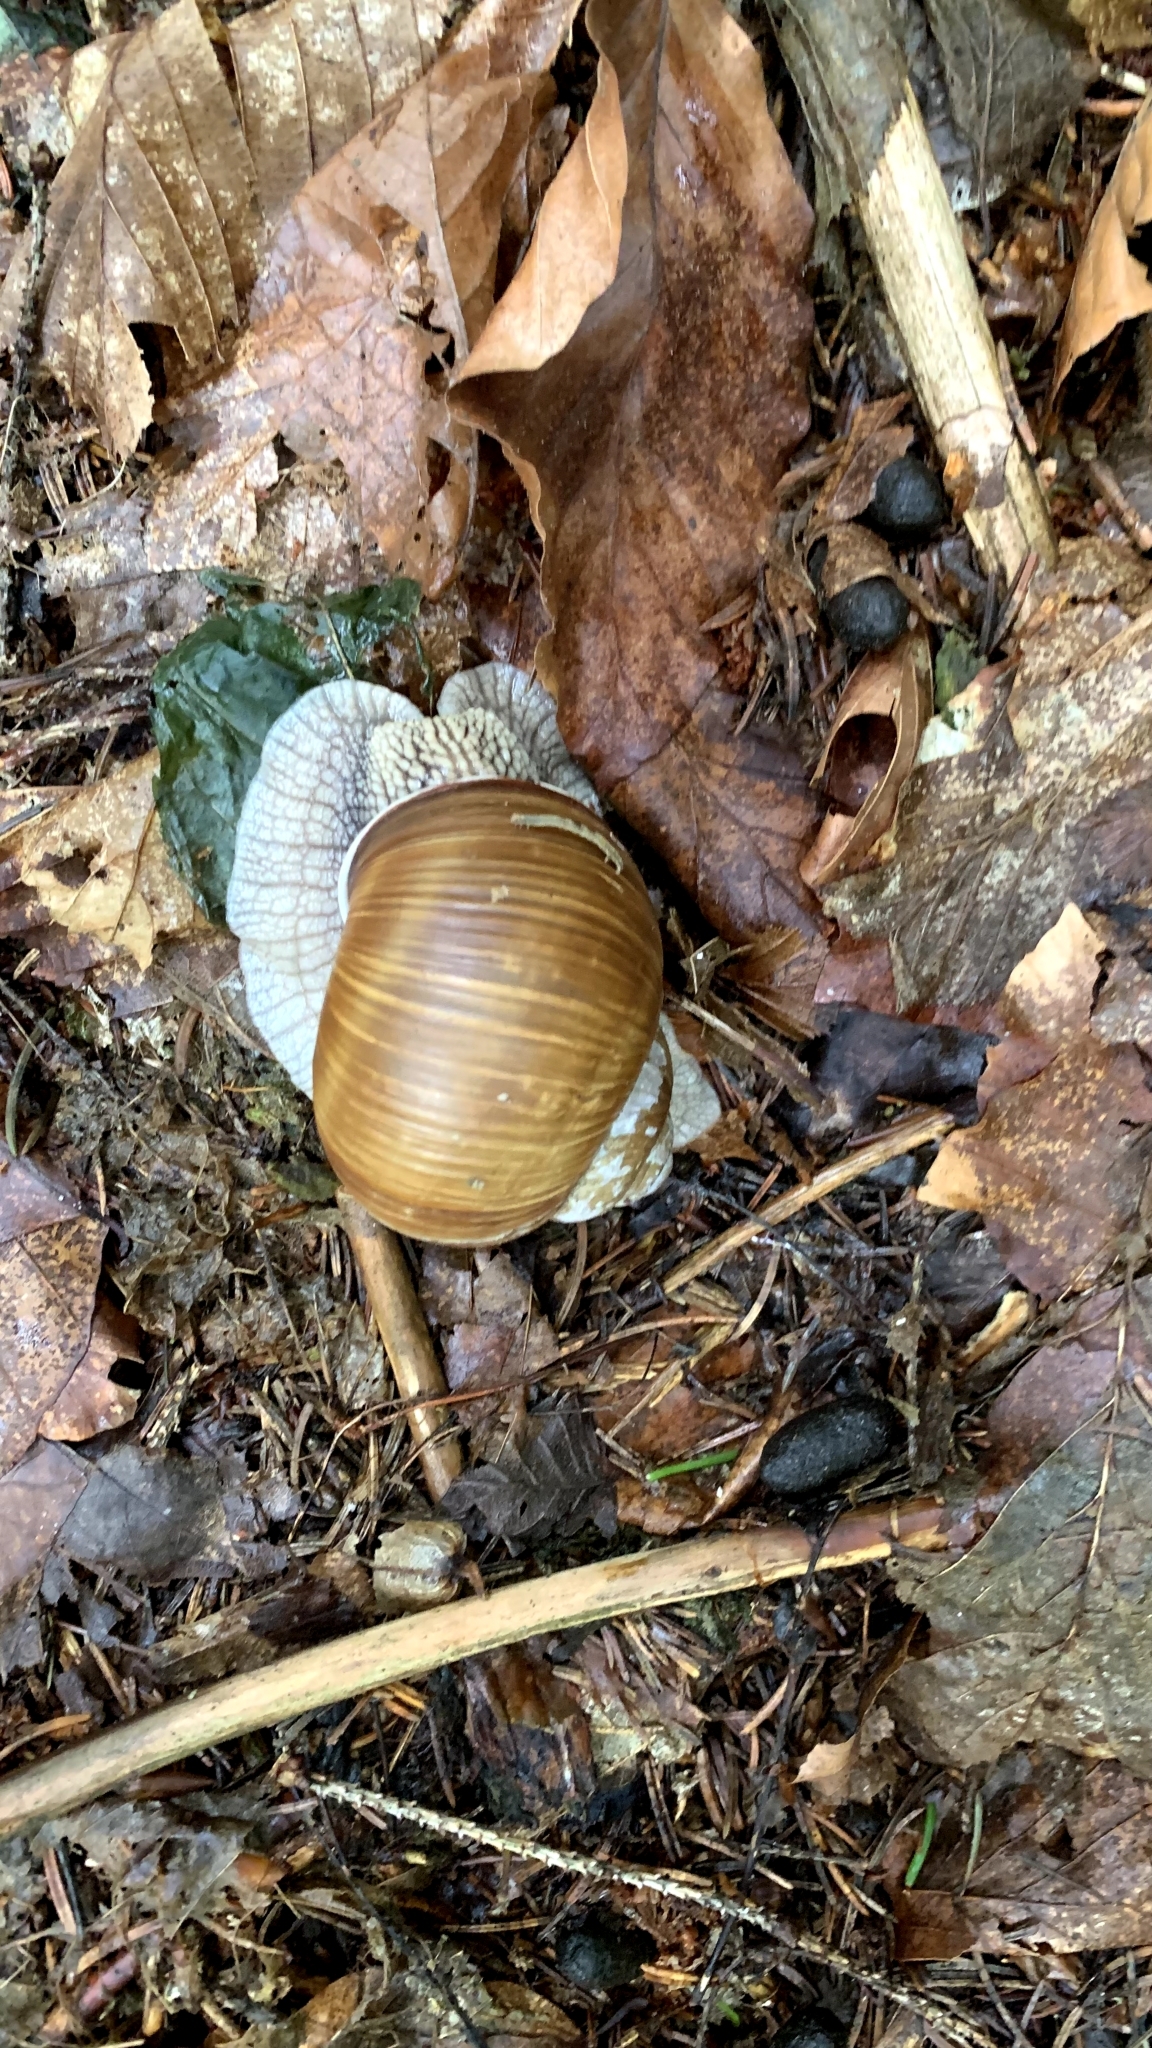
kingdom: Animalia
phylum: Mollusca
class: Gastropoda
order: Stylommatophora
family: Helicidae
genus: Helix
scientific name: Helix pomatia
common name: Roman snail
